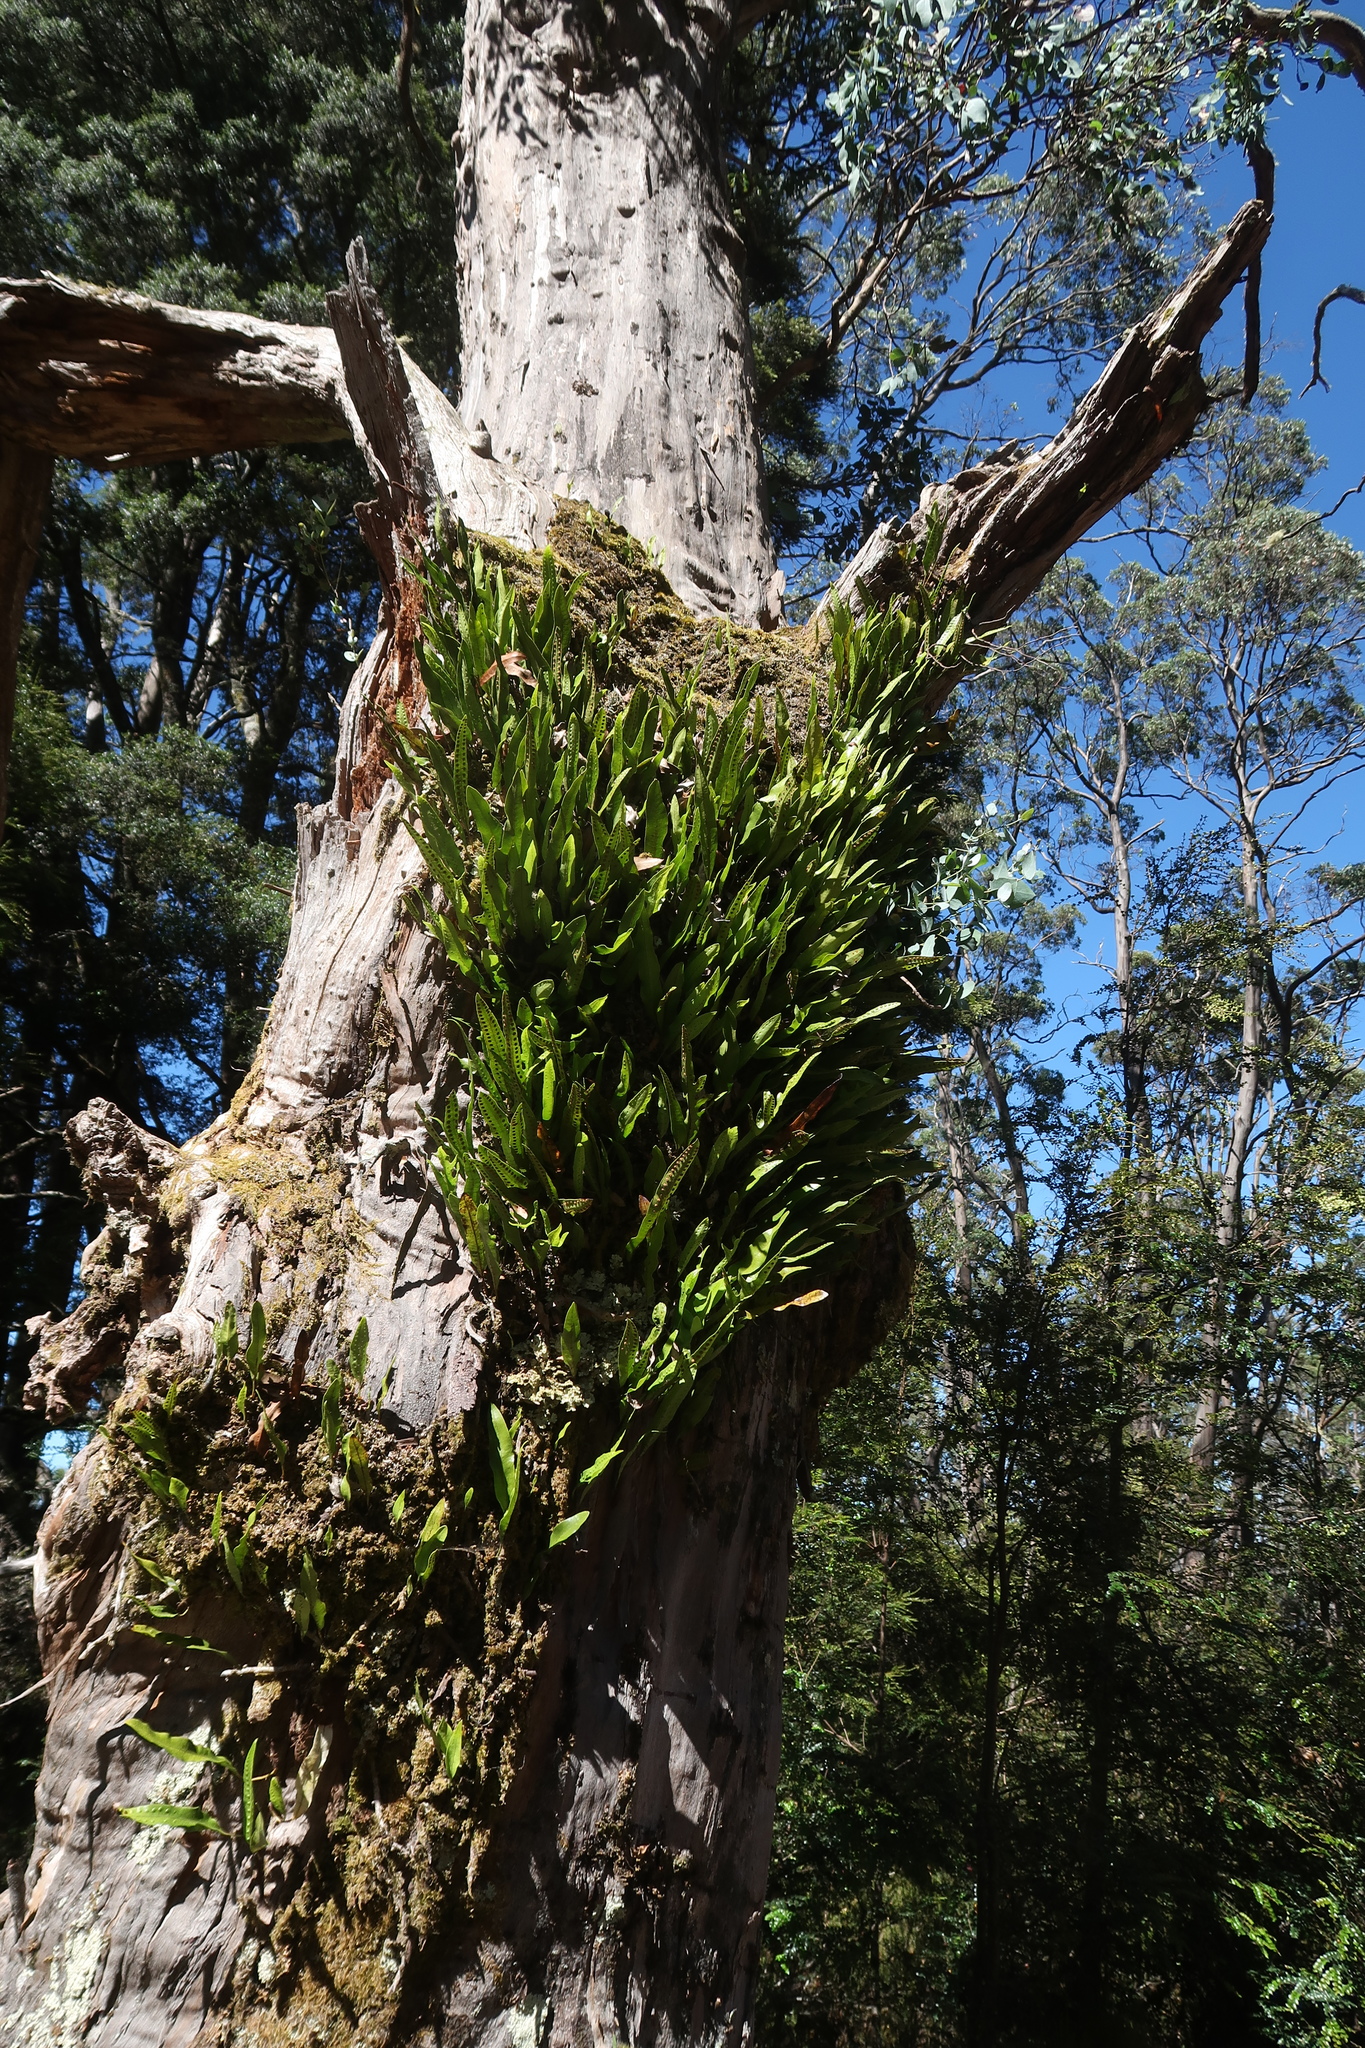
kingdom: Plantae
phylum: Tracheophyta
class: Polypodiopsida
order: Polypodiales
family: Polypodiaceae
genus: Lecanopteris
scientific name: Lecanopteris pustulata
